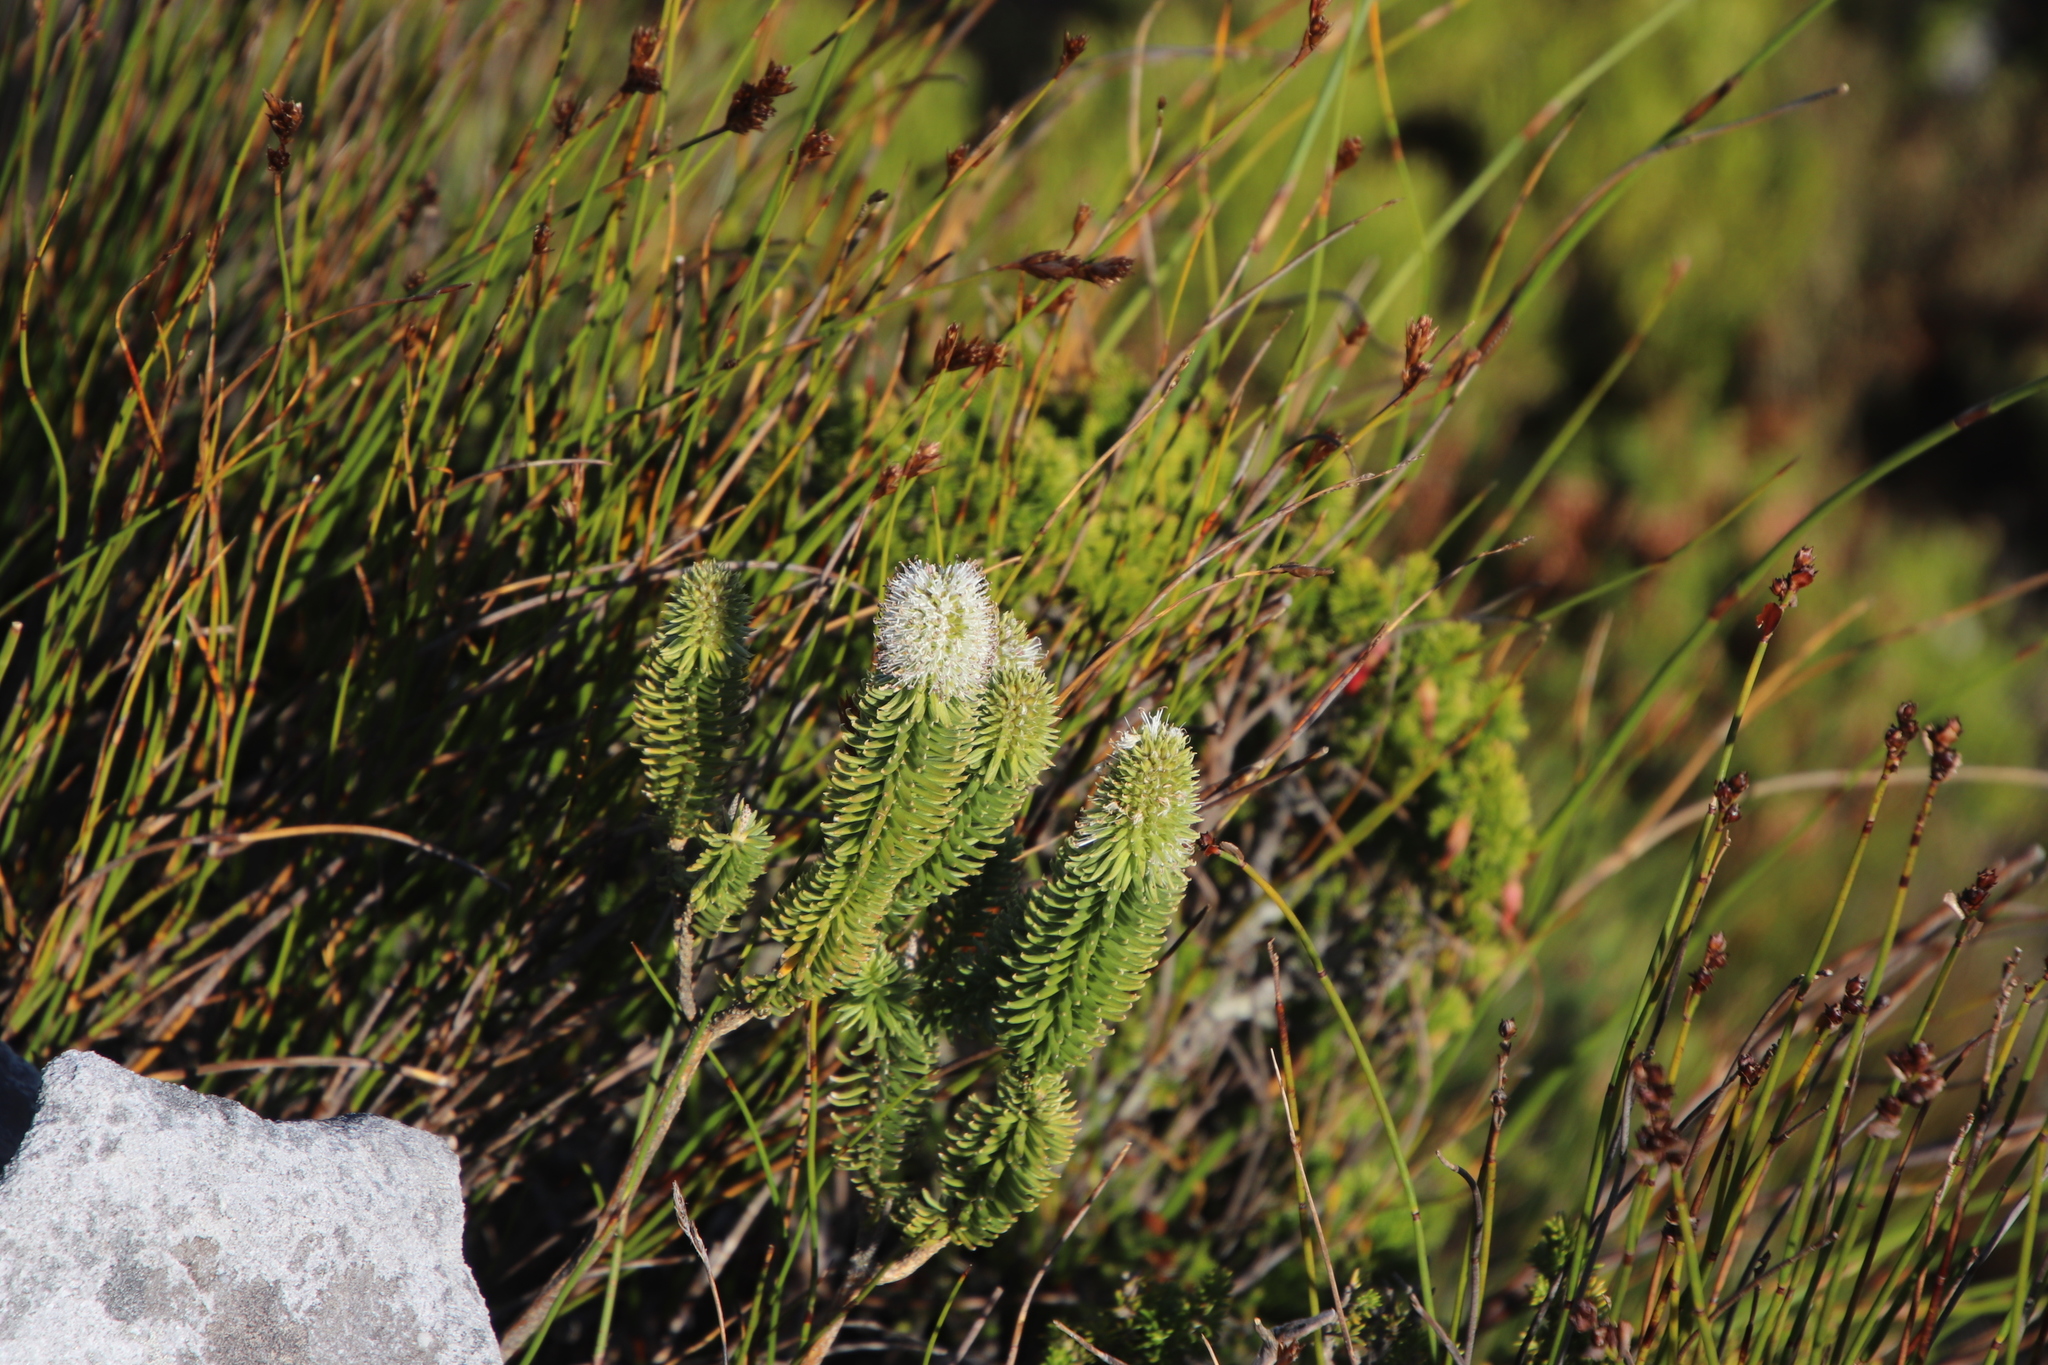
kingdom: Plantae
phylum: Tracheophyta
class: Magnoliopsida
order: Lamiales
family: Stilbaceae
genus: Stilbe
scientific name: Stilbe vestita
